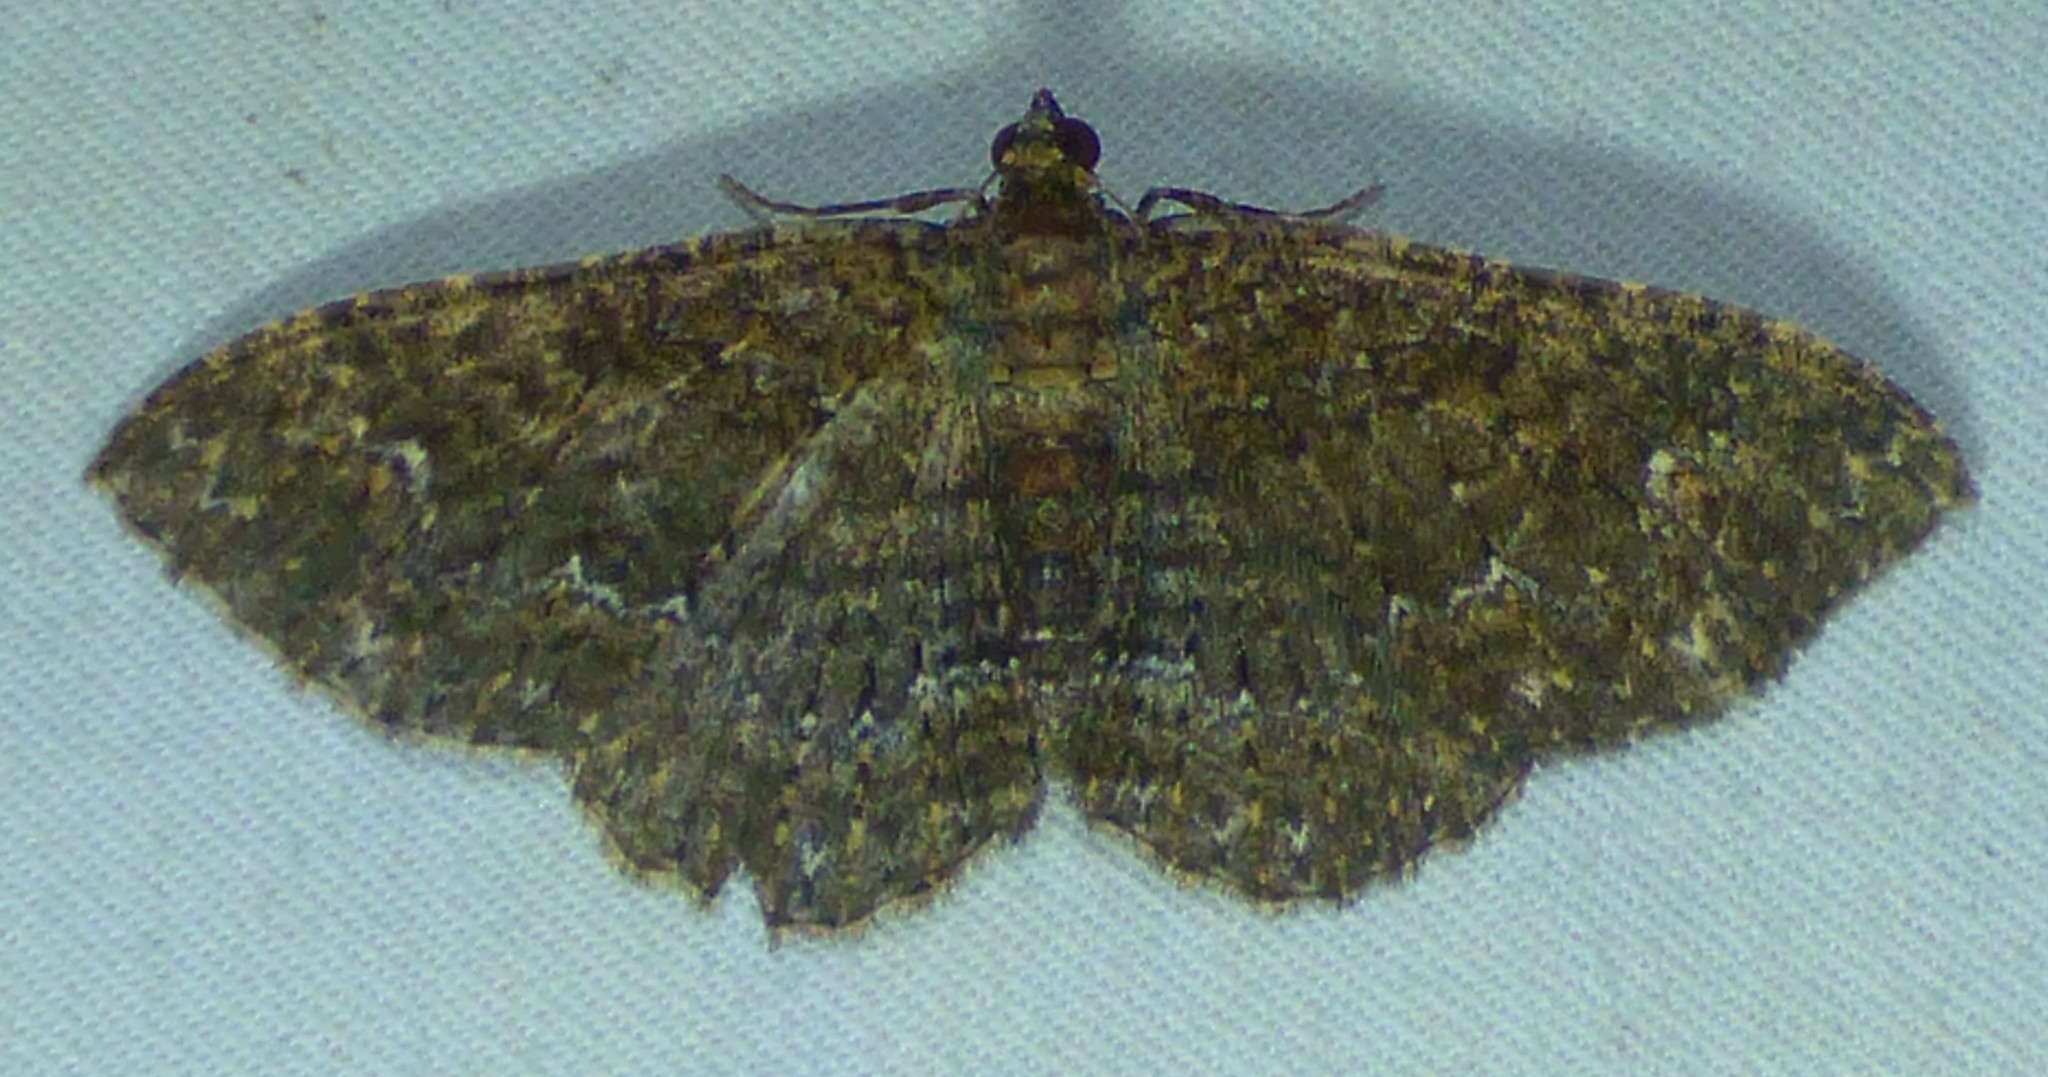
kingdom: Animalia
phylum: Arthropoda
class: Insecta
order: Lepidoptera
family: Geometridae
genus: Disclisioprocta
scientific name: Disclisioprocta stellata
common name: Somber carpet
